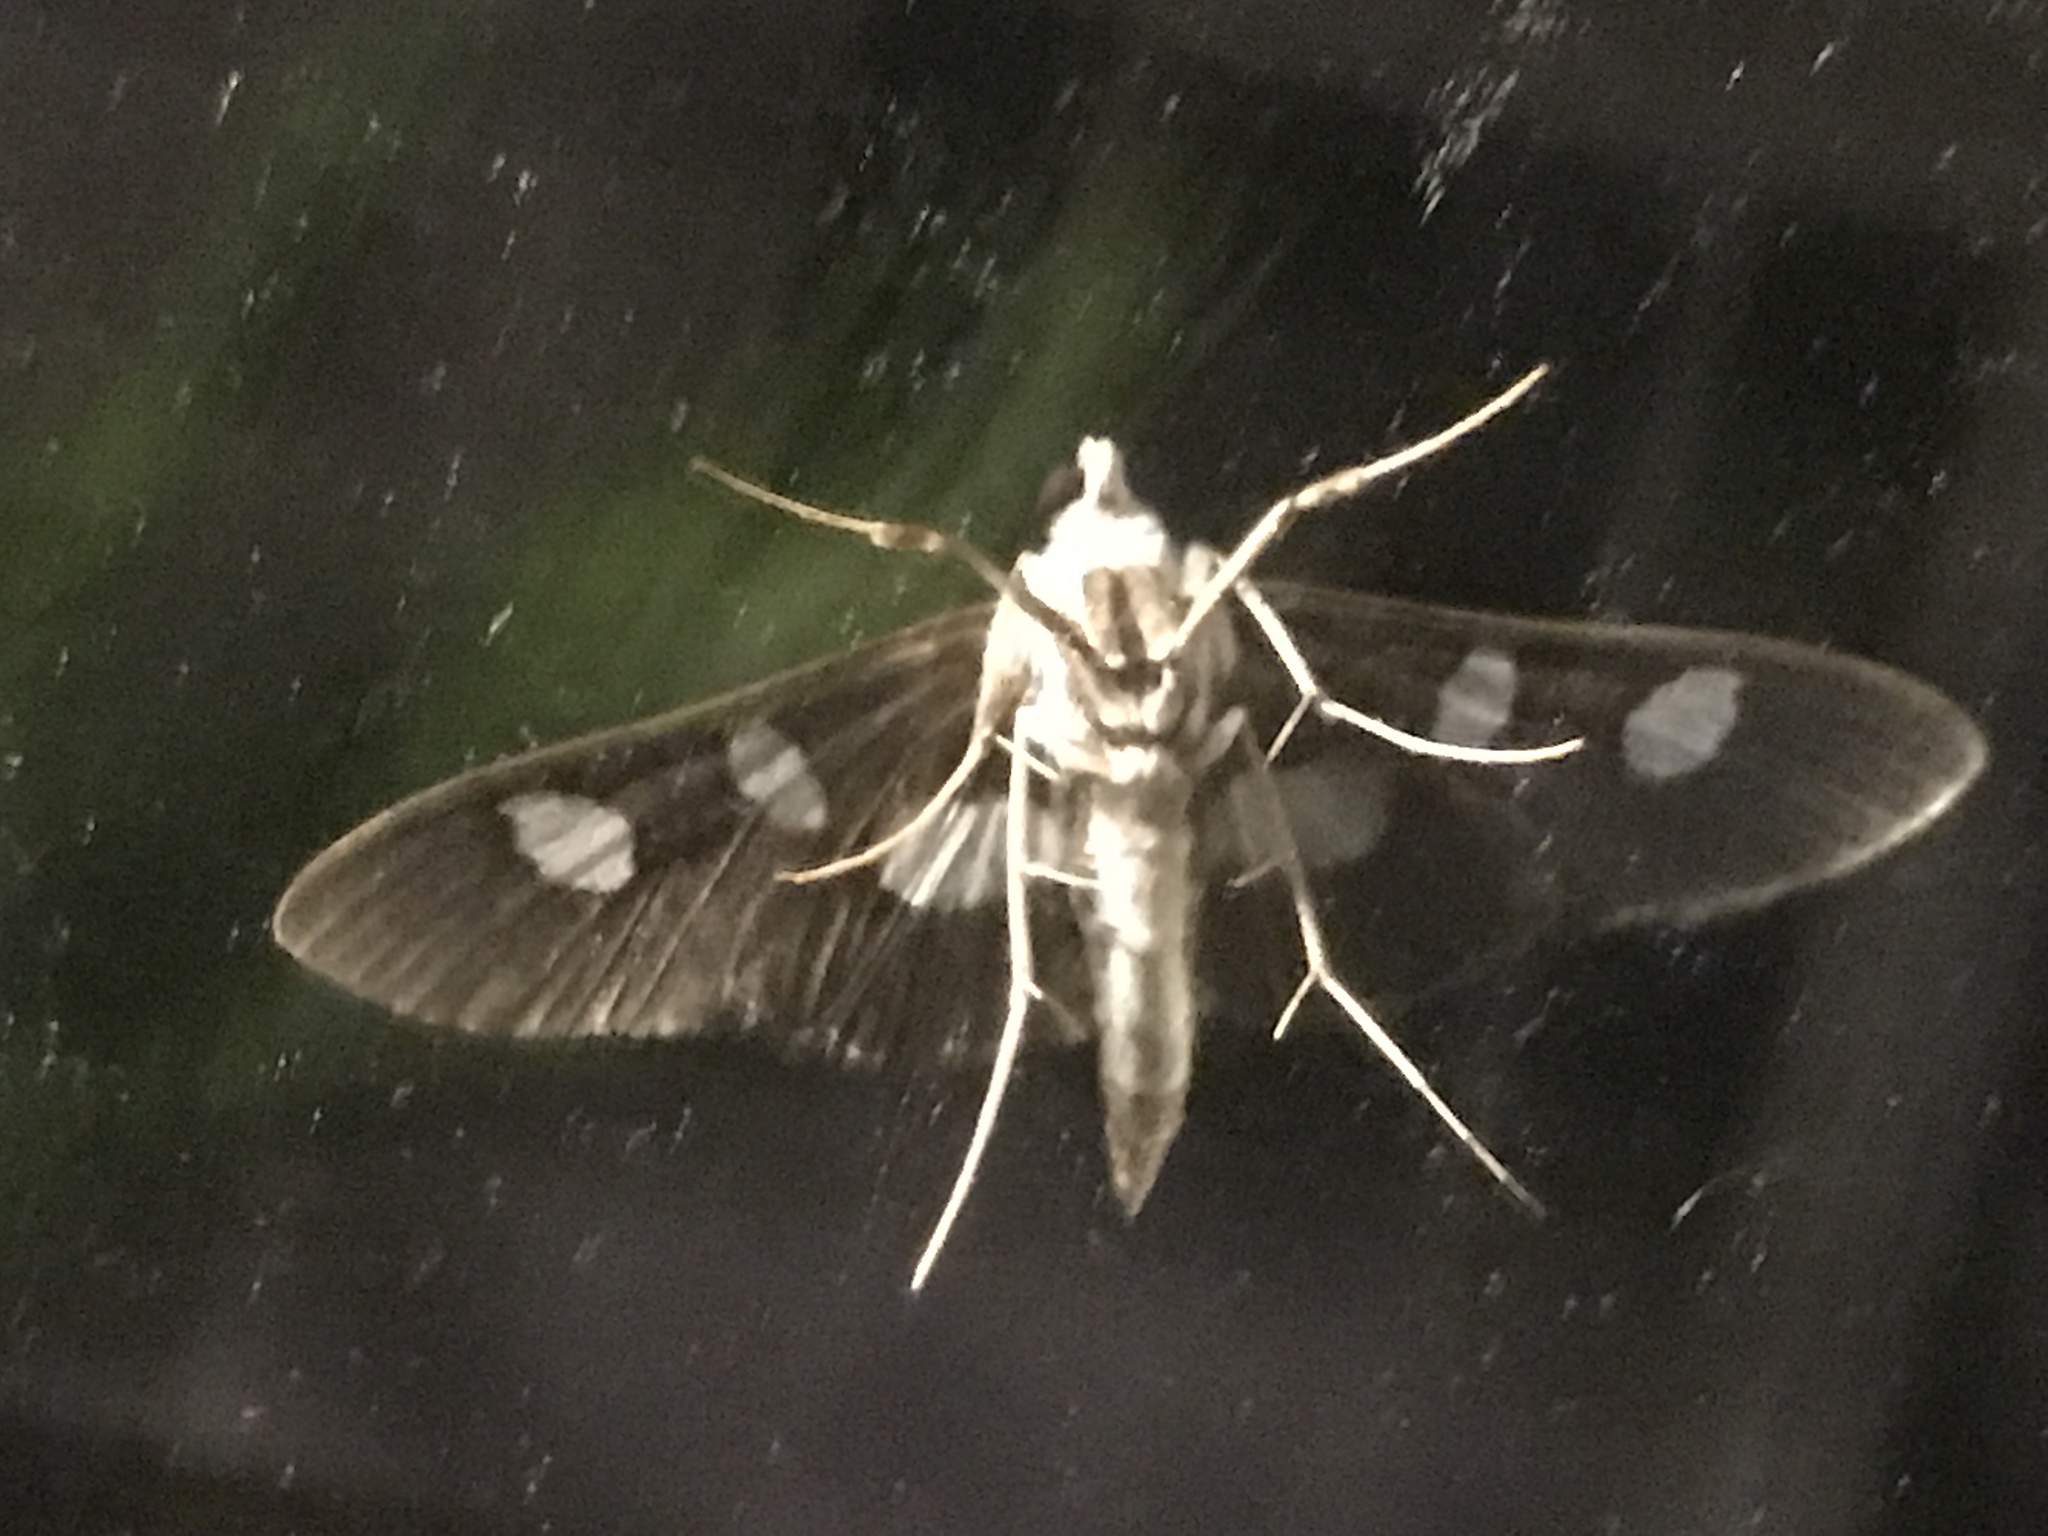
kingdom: Animalia
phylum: Arthropoda
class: Insecta
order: Lepidoptera
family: Crambidae
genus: Desmia
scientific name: Desmia funeralis
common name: Grape leaf folder moth
